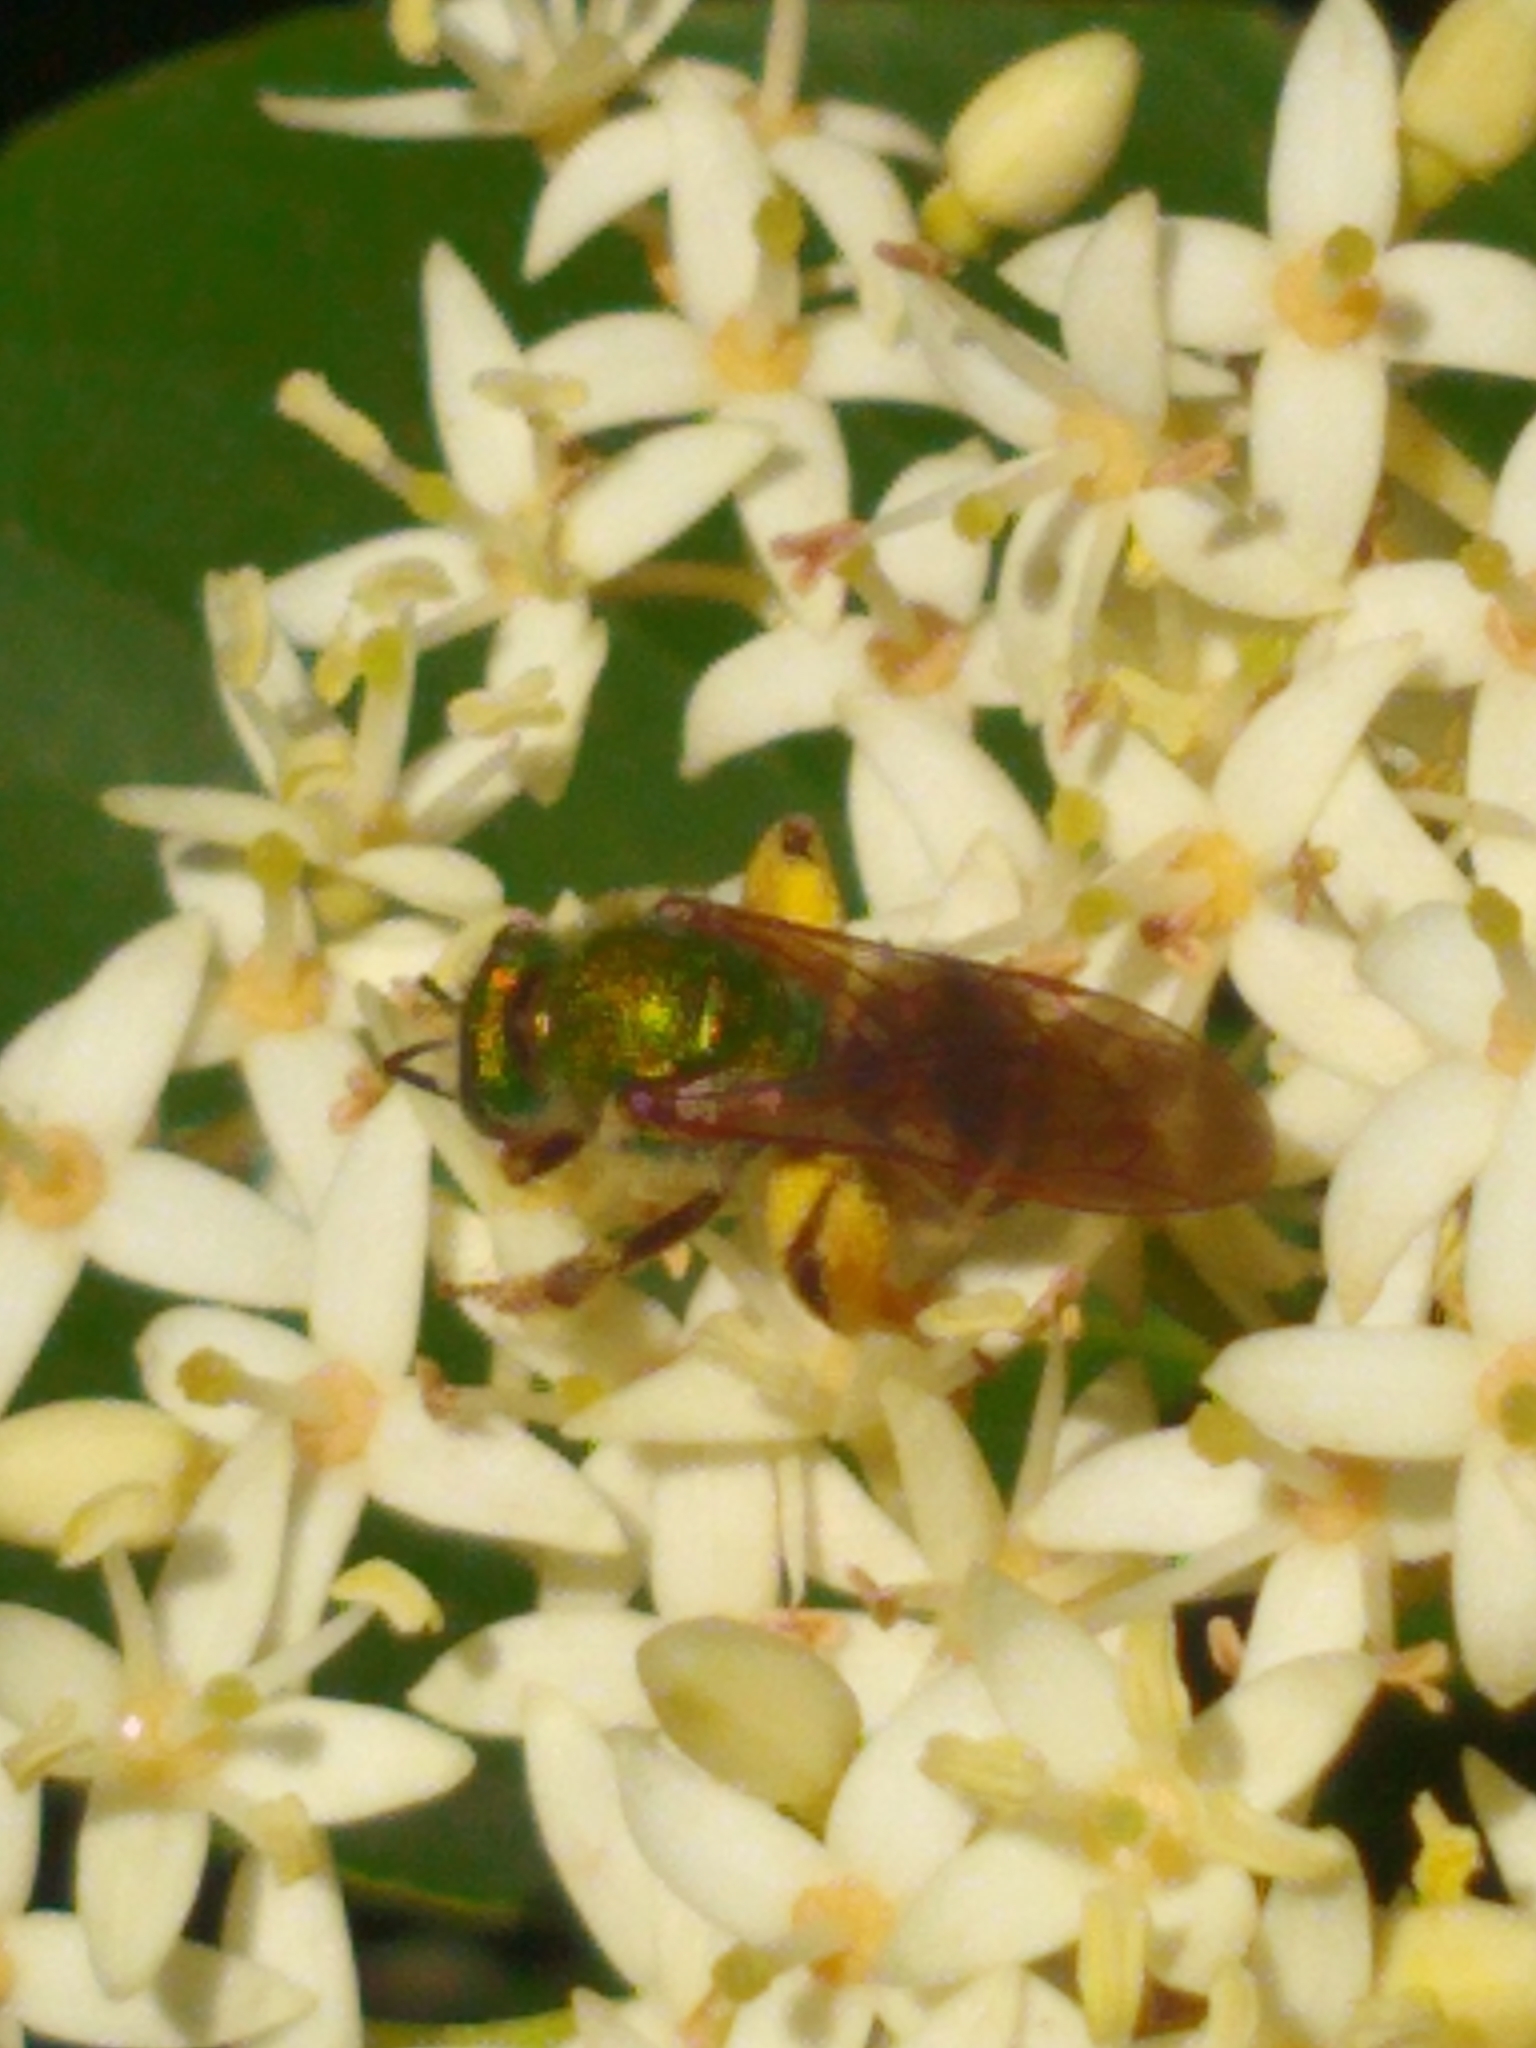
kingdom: Animalia
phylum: Arthropoda
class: Insecta
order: Hymenoptera
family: Halictidae
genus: Agapostemon
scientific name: Agapostemon virescens
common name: Bicolored striped sweat bee
